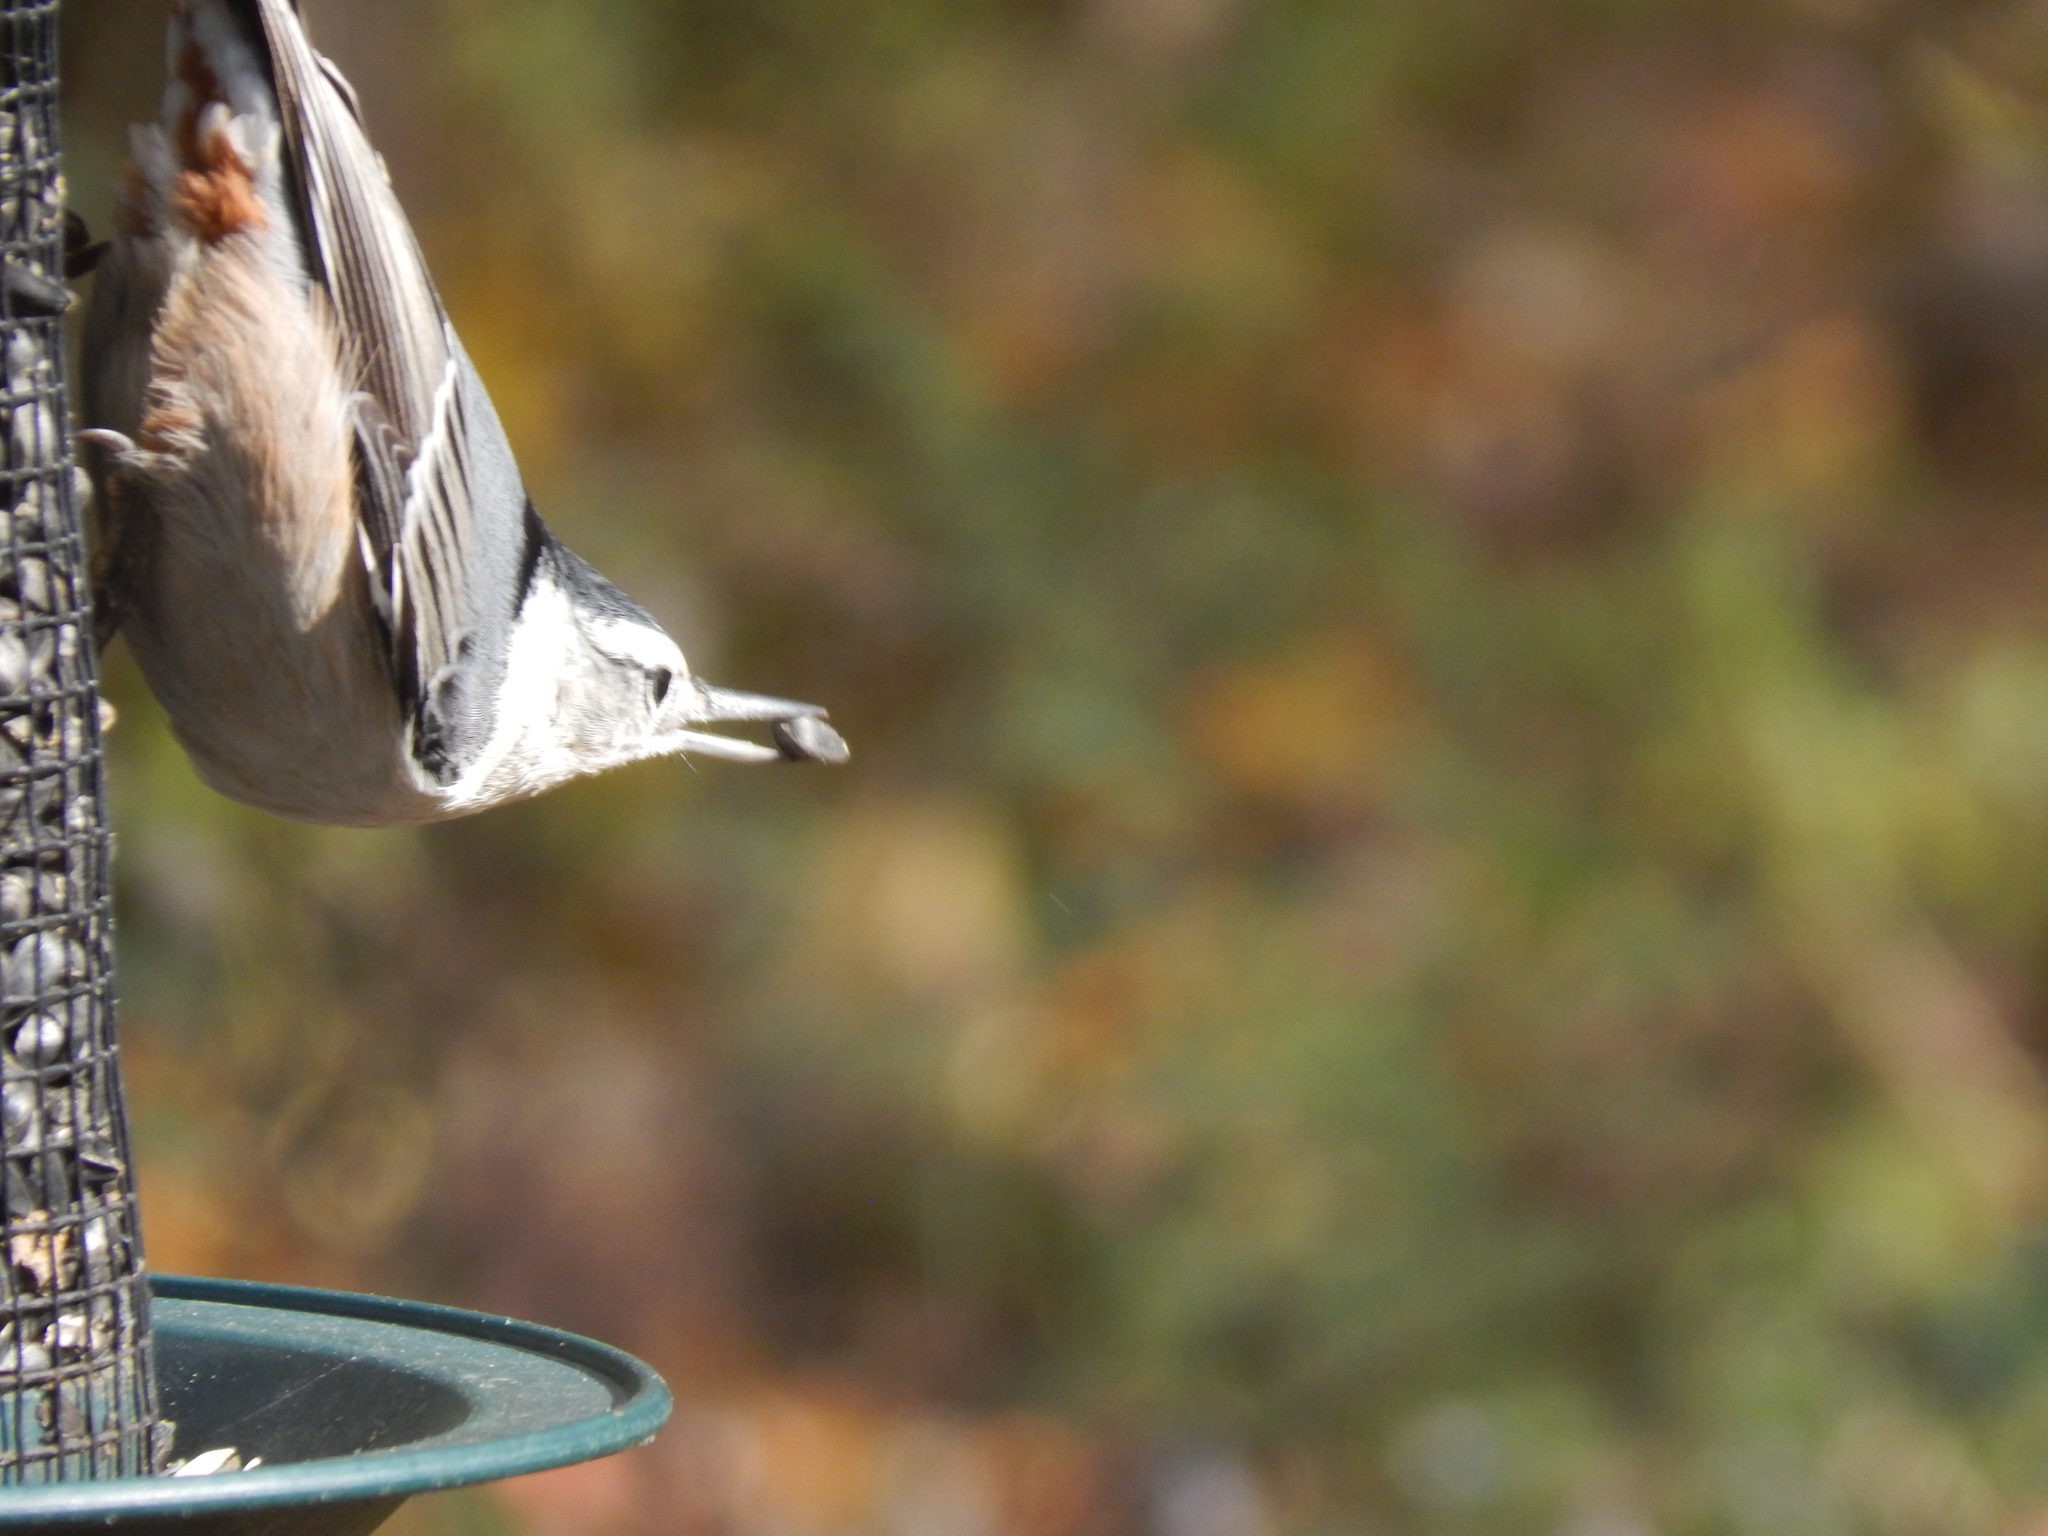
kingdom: Animalia
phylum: Chordata
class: Aves
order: Passeriformes
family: Sittidae
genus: Sitta
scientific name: Sitta carolinensis
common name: White-breasted nuthatch
